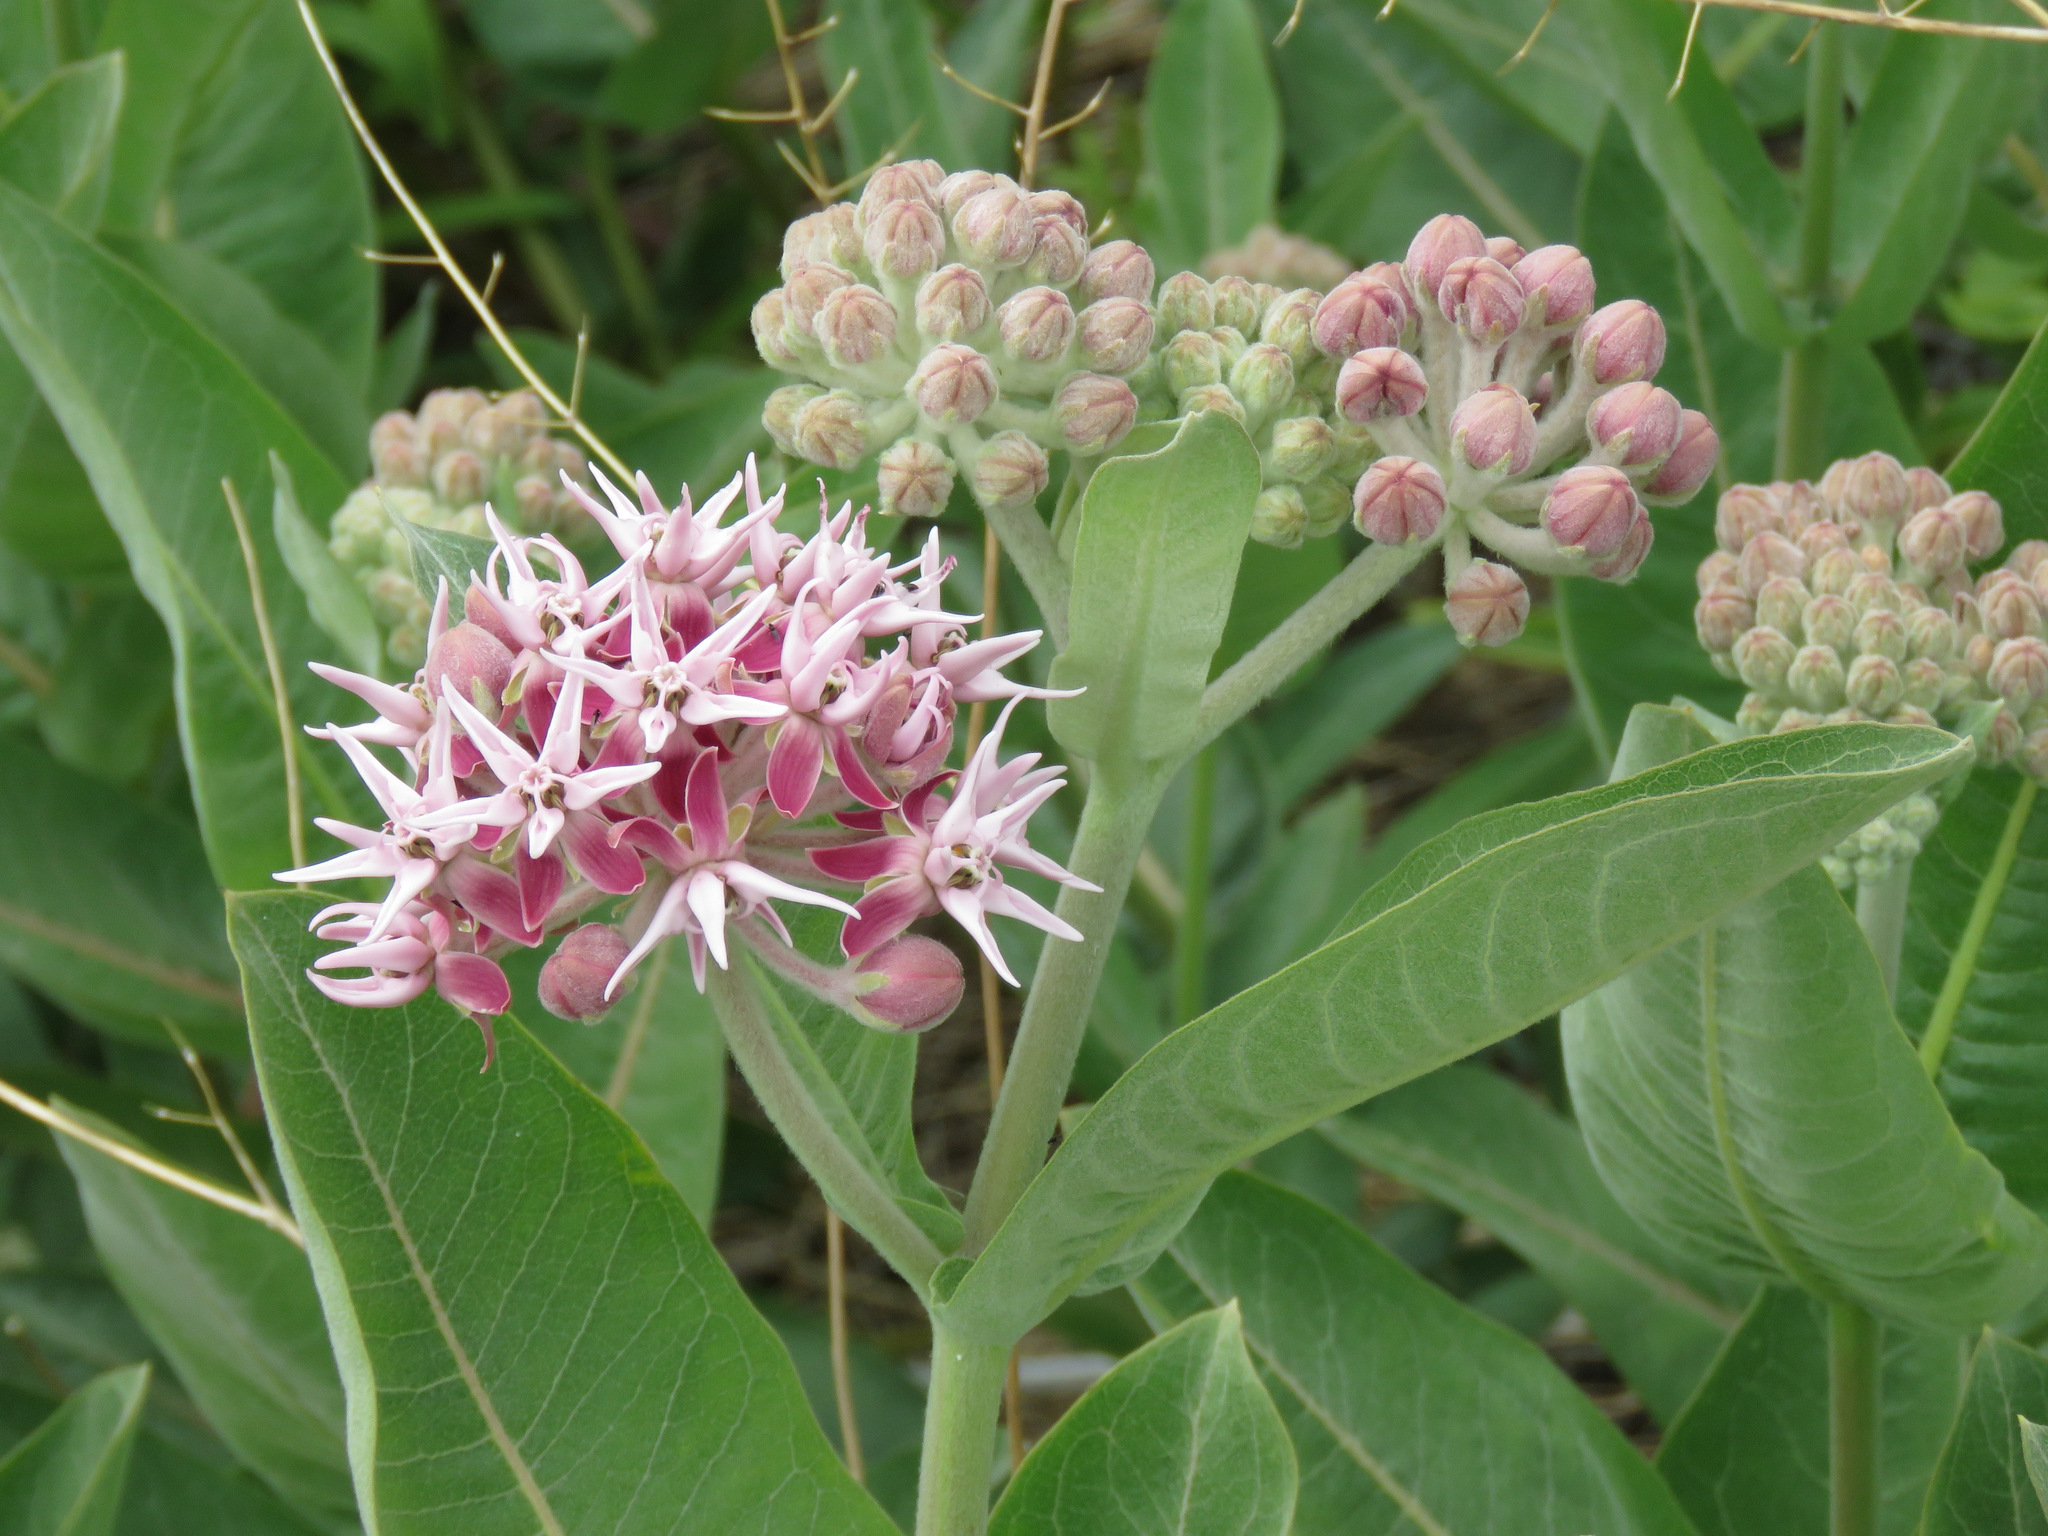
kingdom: Plantae
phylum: Tracheophyta
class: Magnoliopsida
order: Gentianales
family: Apocynaceae
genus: Asclepias
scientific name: Asclepias speciosa
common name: Showy milkweed
